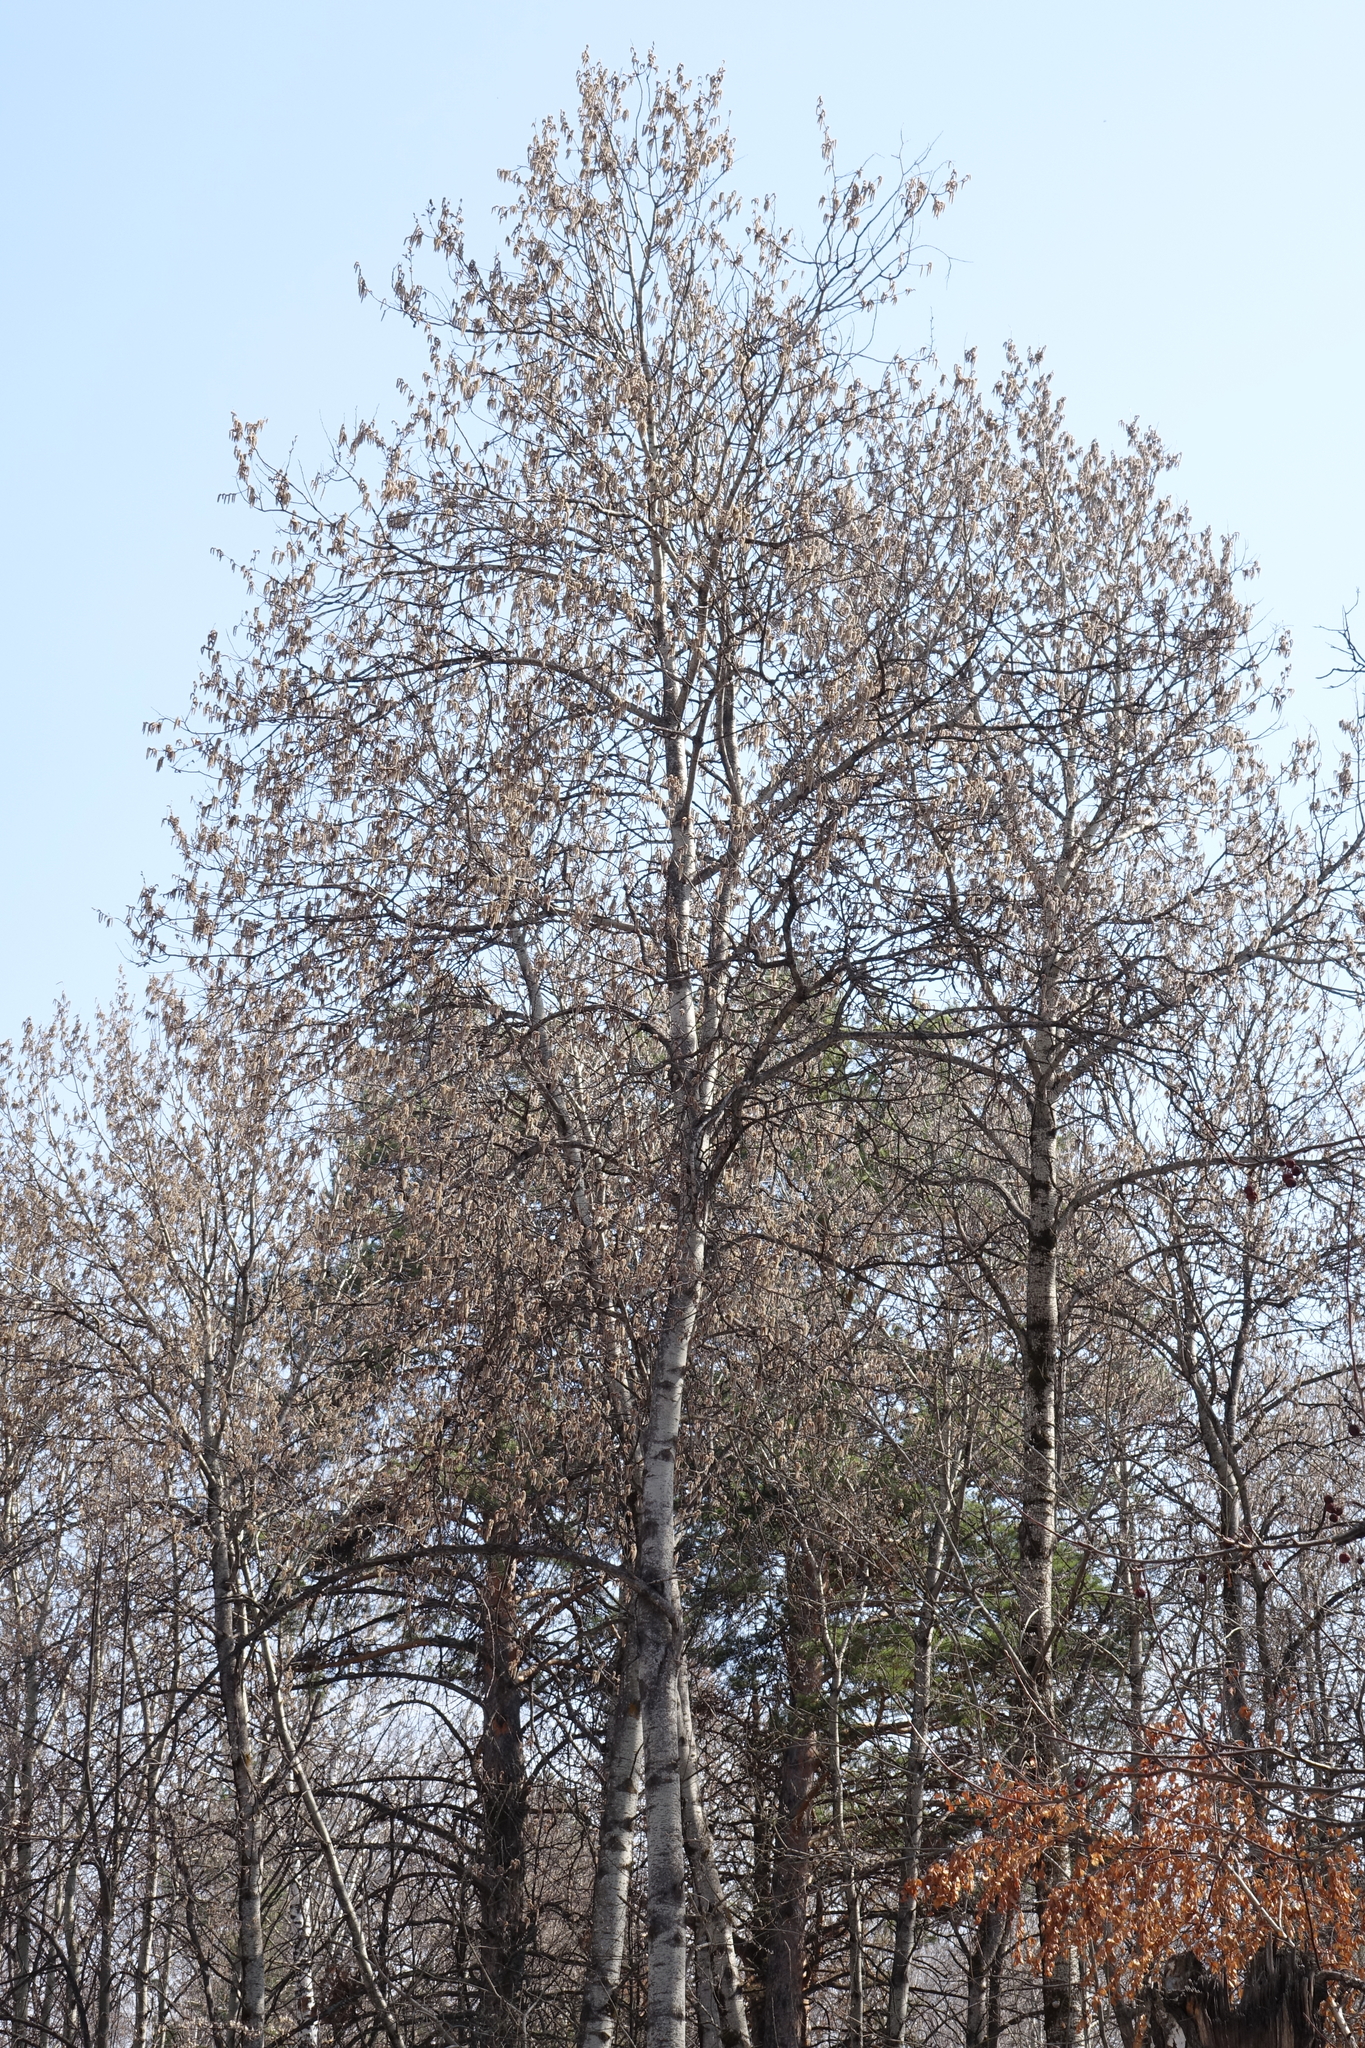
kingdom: Plantae
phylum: Tracheophyta
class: Magnoliopsida
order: Malpighiales
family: Salicaceae
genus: Populus
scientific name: Populus tremula
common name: European aspen
